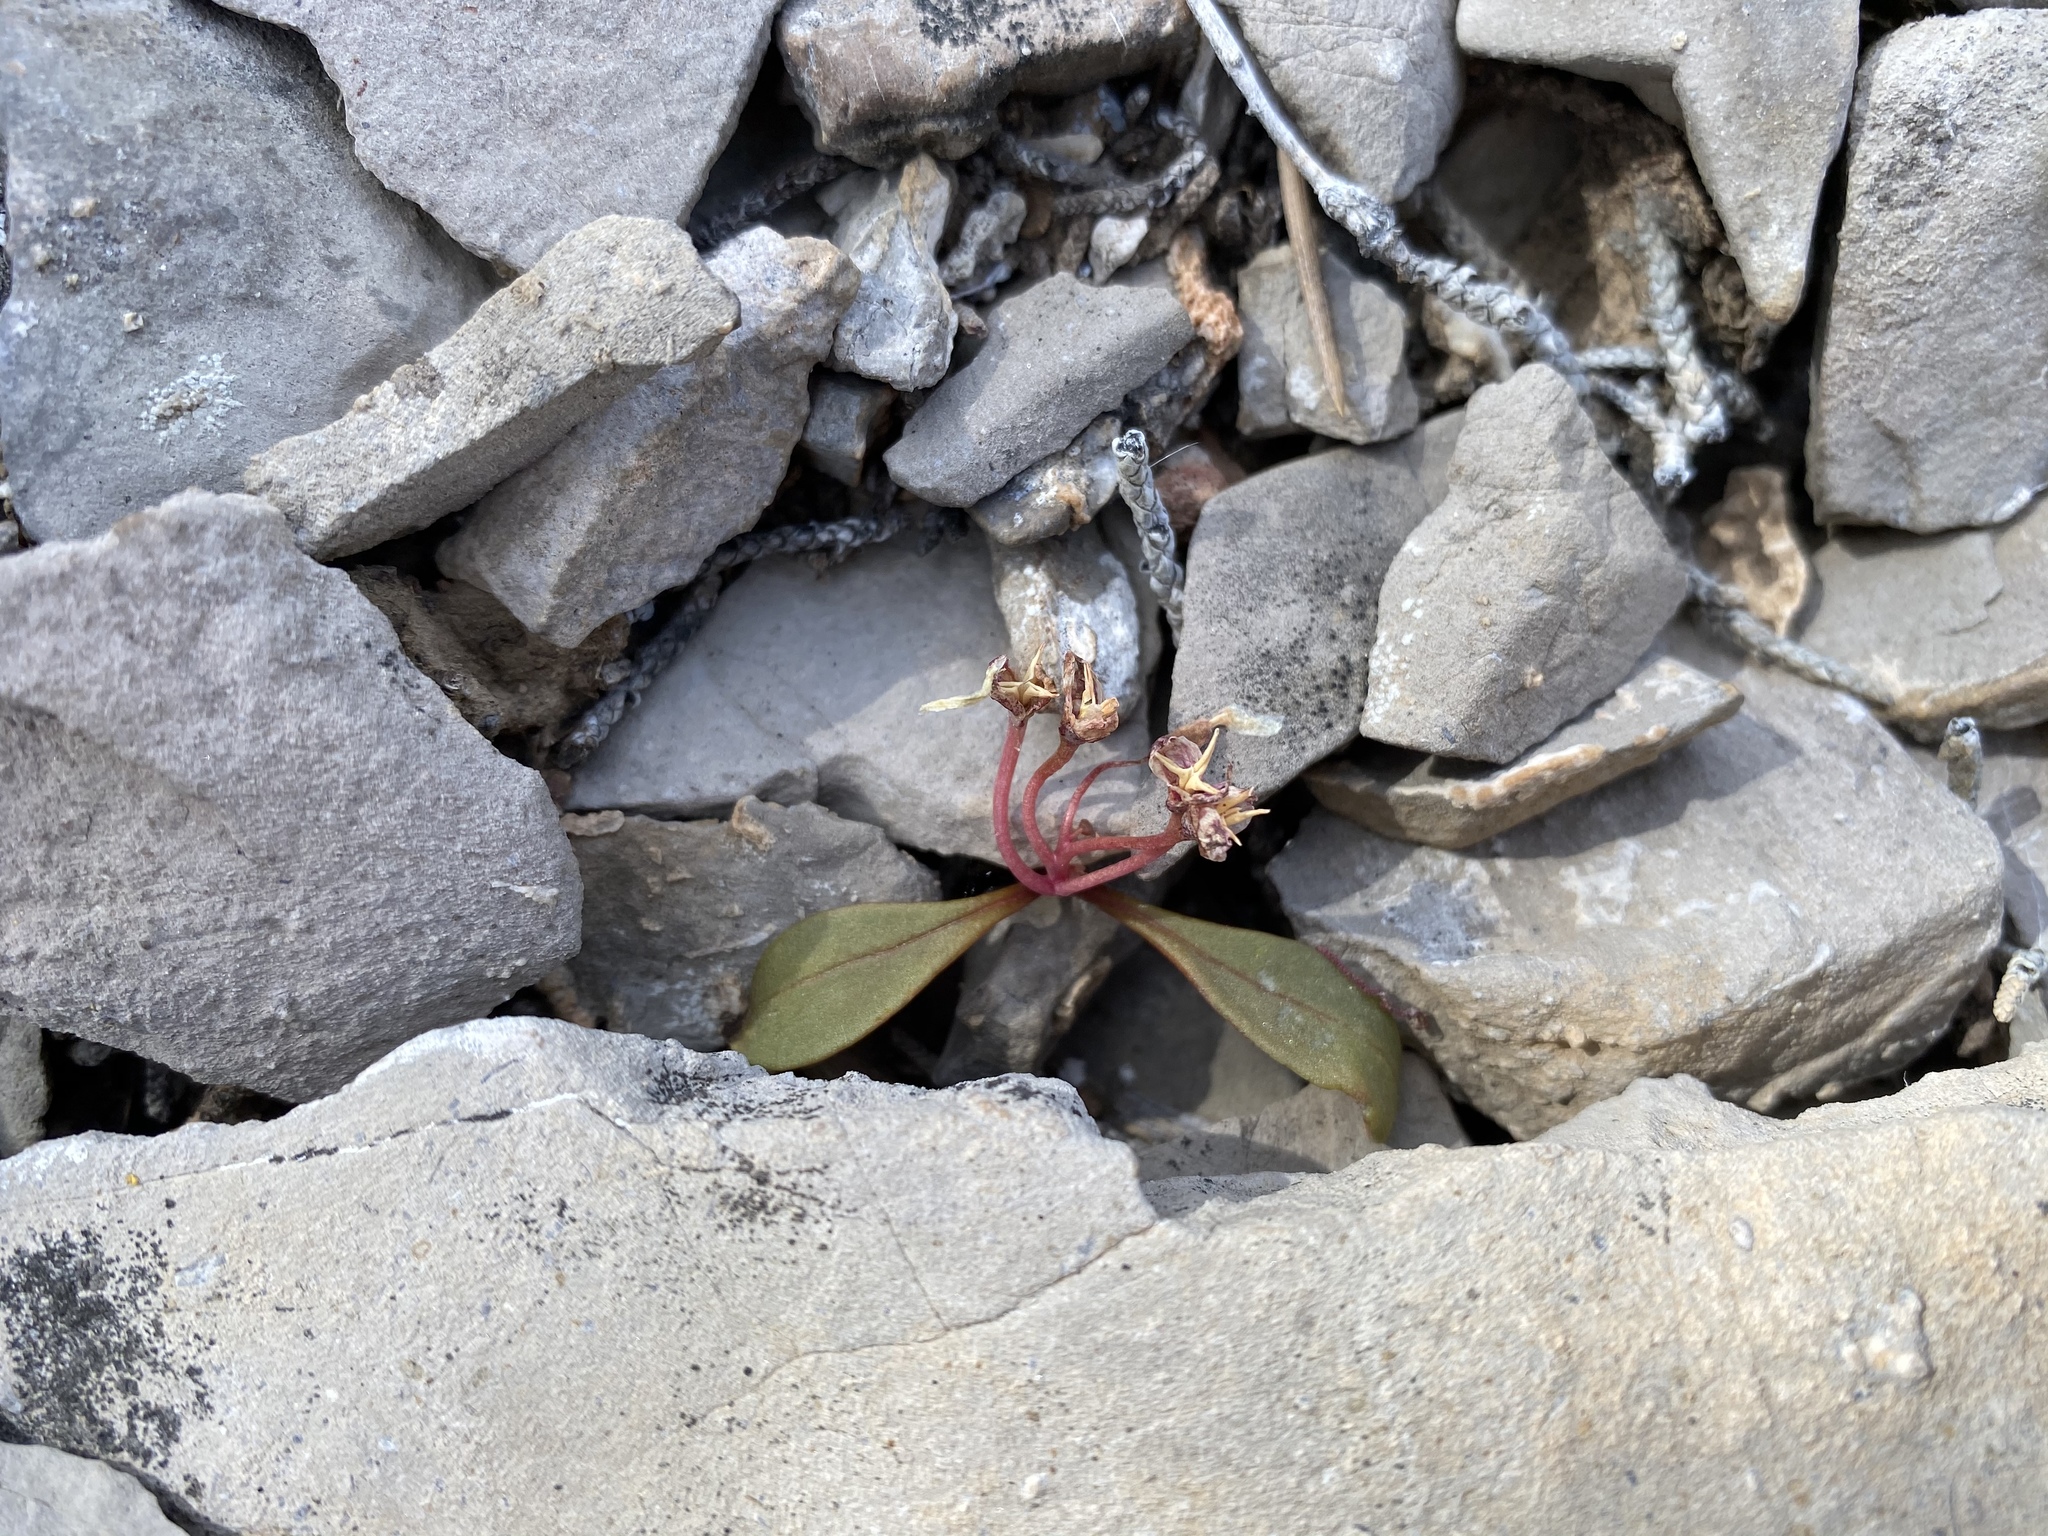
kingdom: Plantae
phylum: Tracheophyta
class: Magnoliopsida
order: Caryophyllales
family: Montiaceae
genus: Claytonia
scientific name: Claytonia panamintensis
